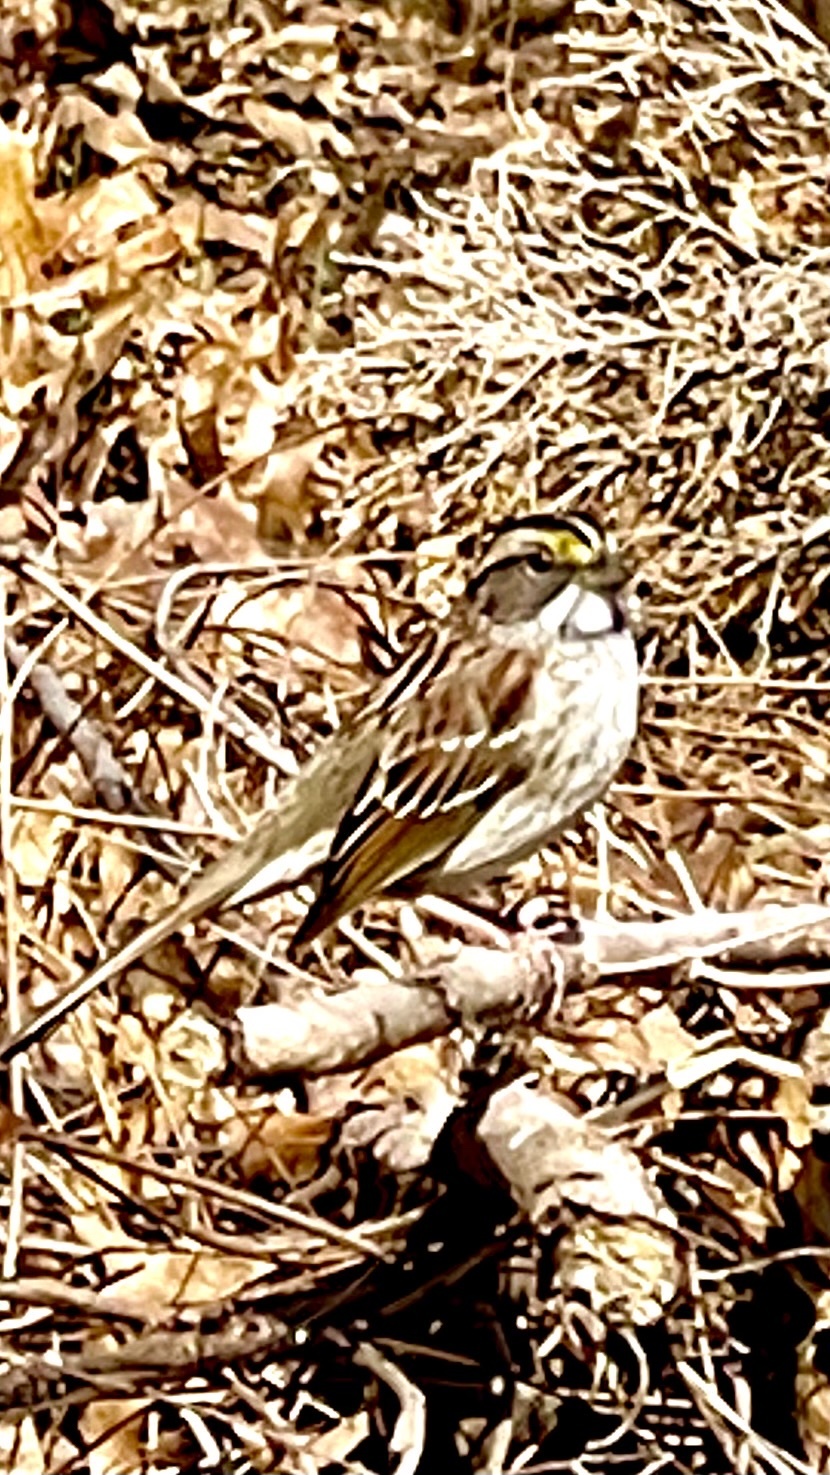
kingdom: Animalia
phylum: Chordata
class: Aves
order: Passeriformes
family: Passerellidae
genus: Zonotrichia
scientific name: Zonotrichia albicollis
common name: White-throated sparrow
